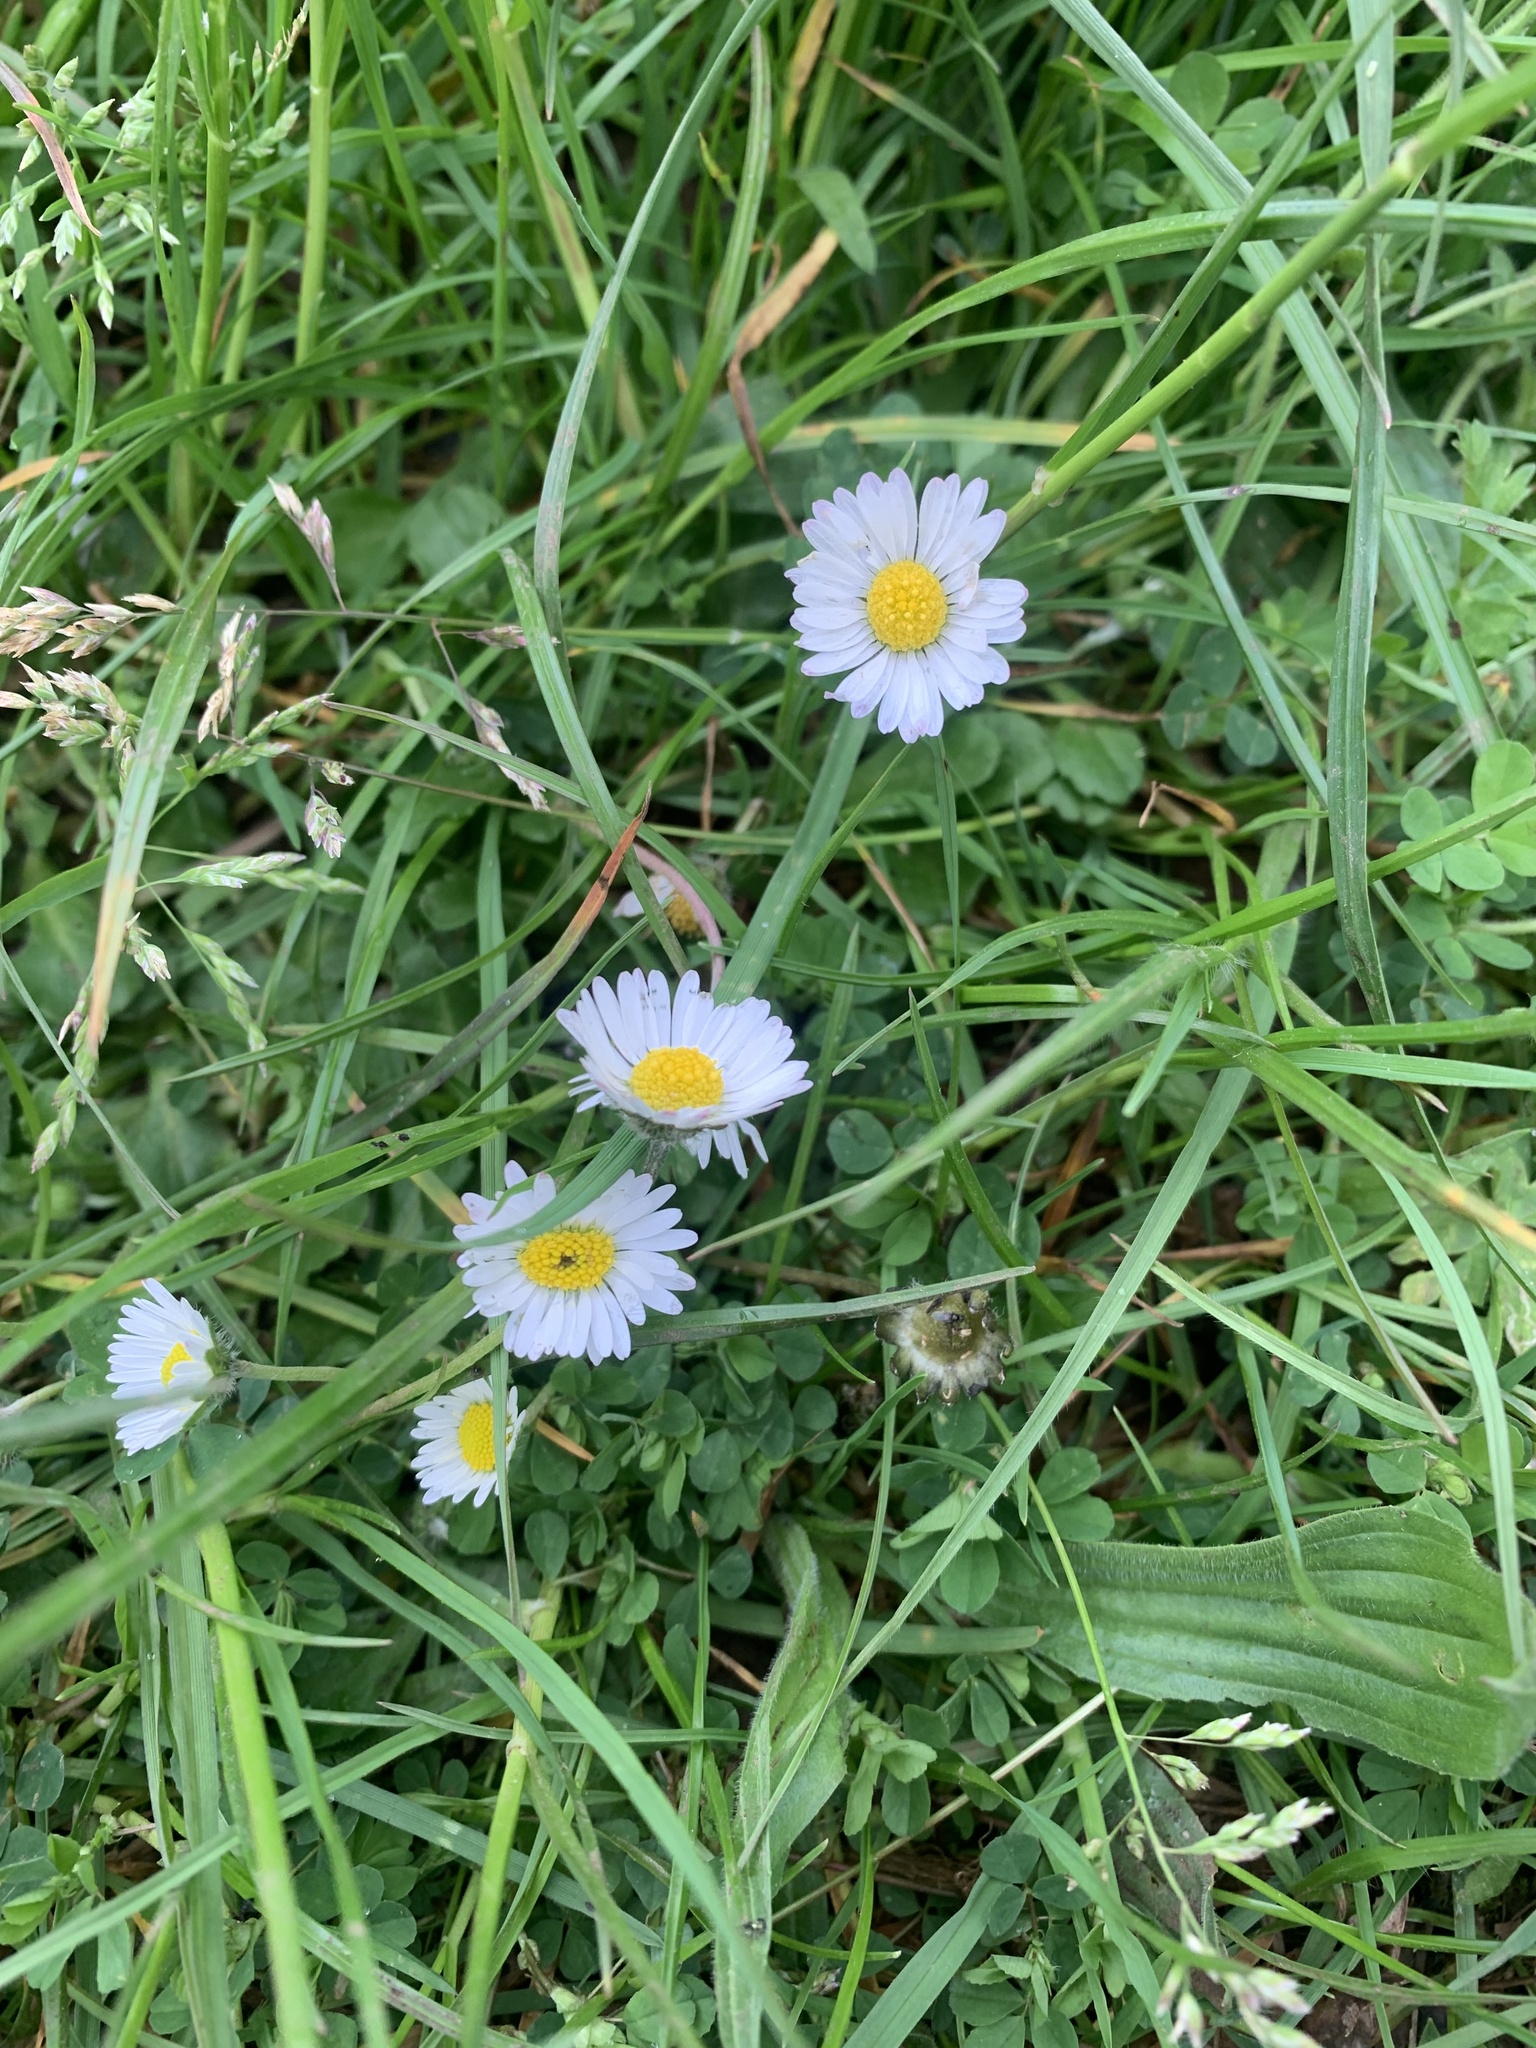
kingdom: Plantae
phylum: Tracheophyta
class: Magnoliopsida
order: Asterales
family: Asteraceae
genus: Bellis
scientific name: Bellis perennis
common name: Lawndaisy
